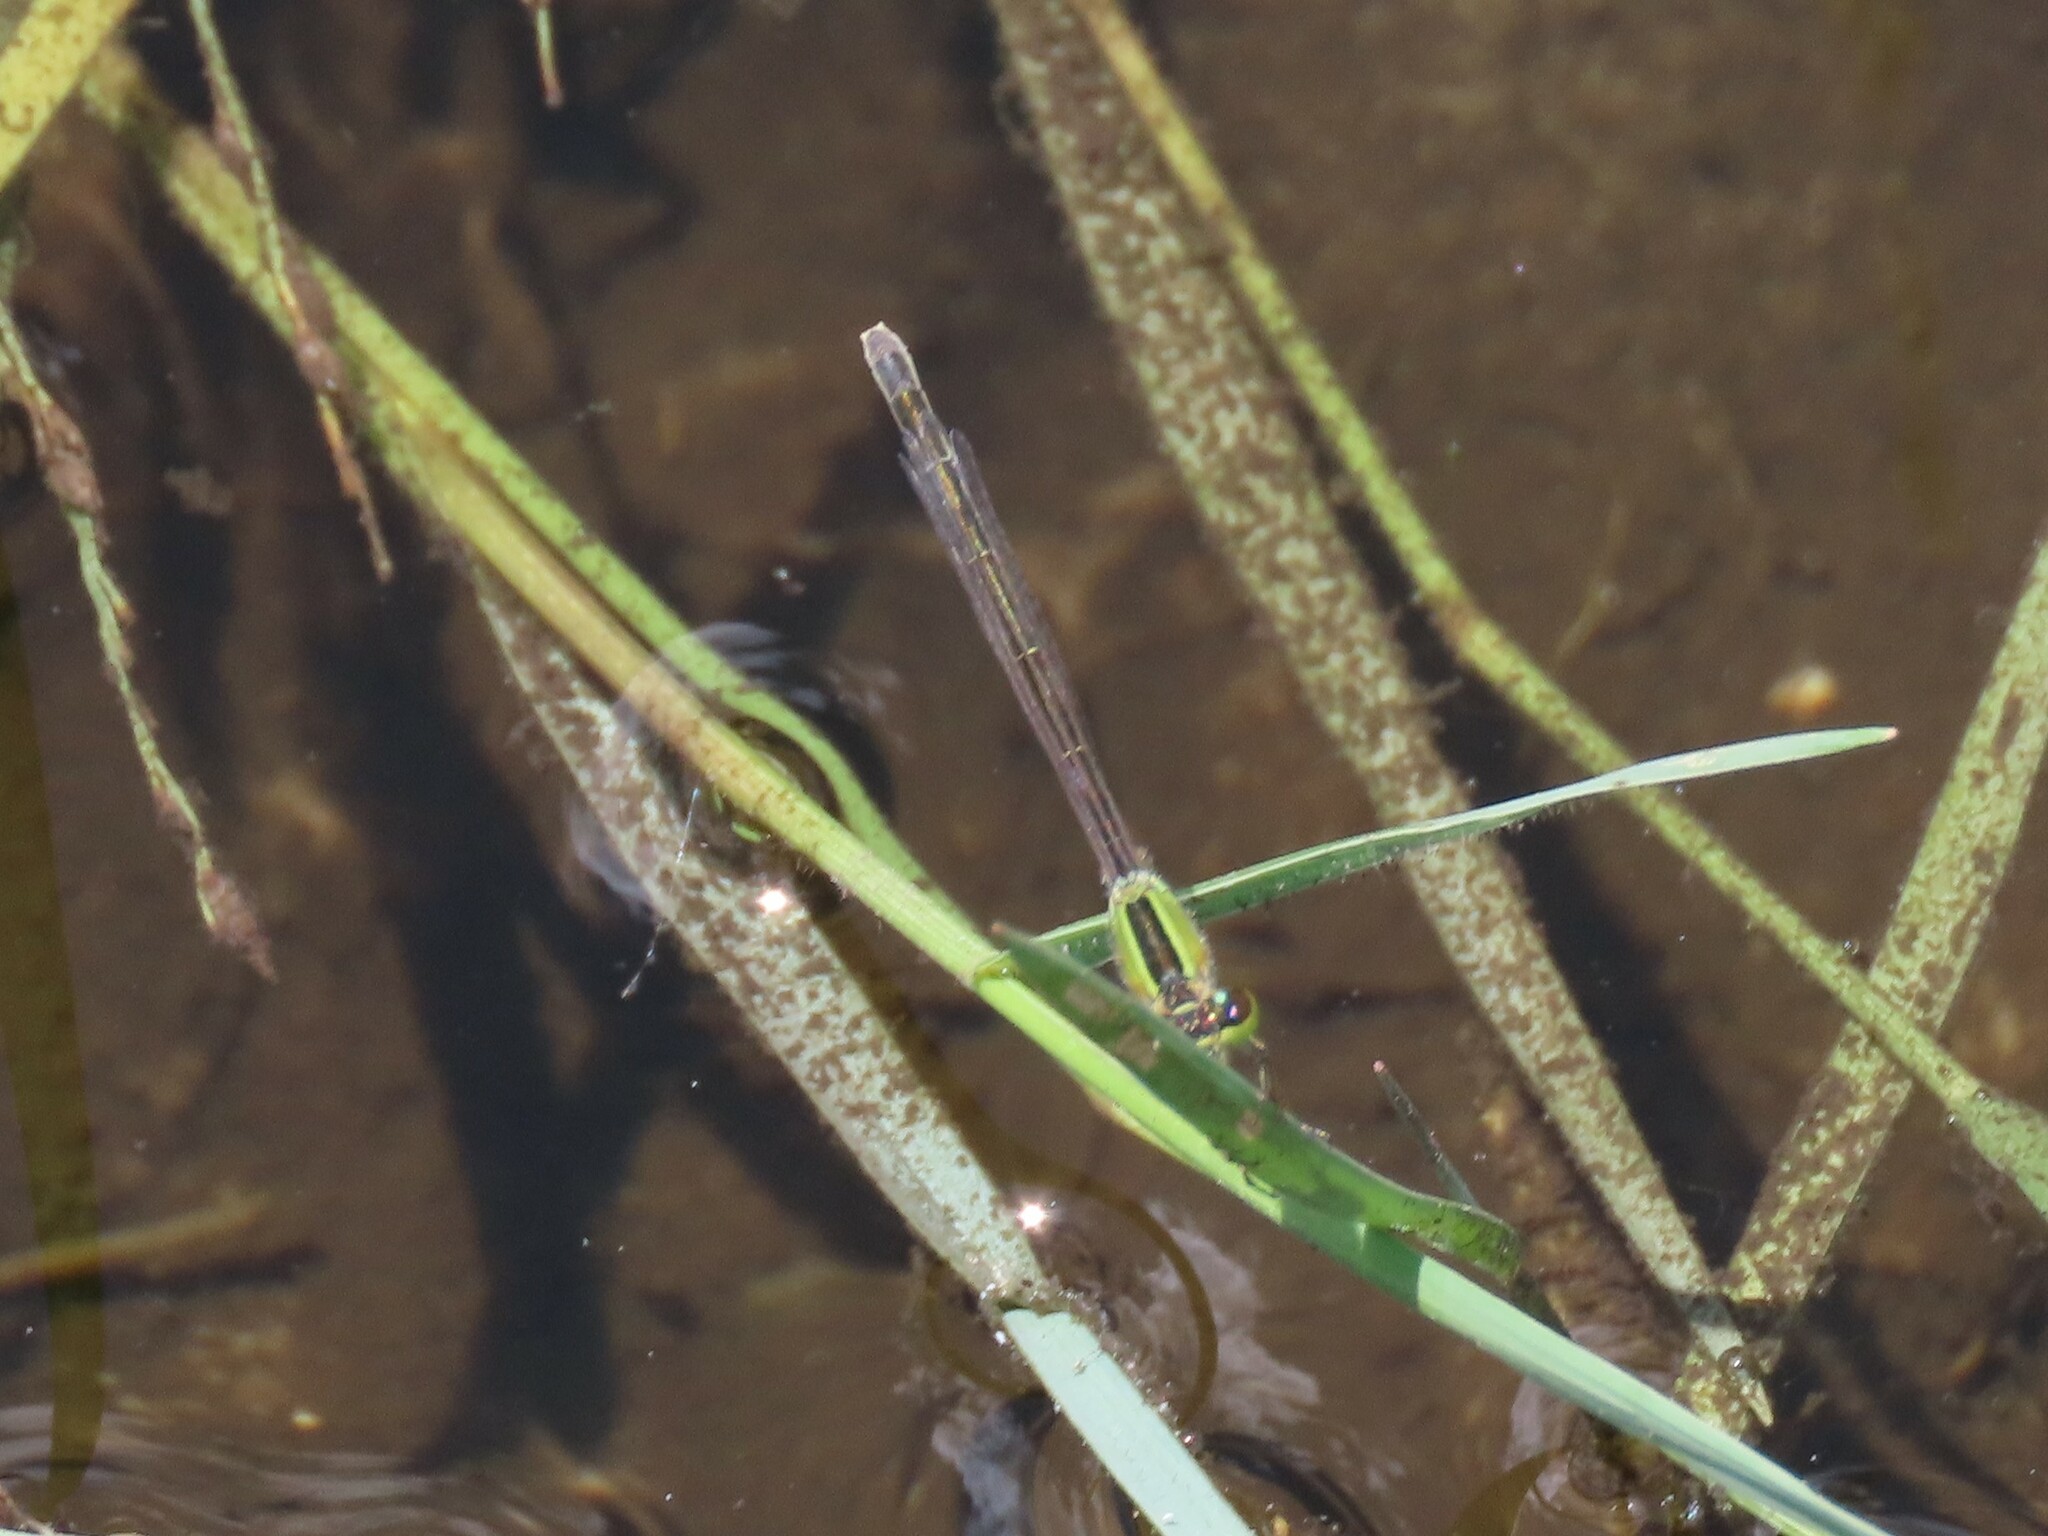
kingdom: Animalia
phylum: Arthropoda
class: Insecta
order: Odonata
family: Coenagrionidae
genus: Ischnura
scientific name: Ischnura ramburii
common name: Rambur's forktail
